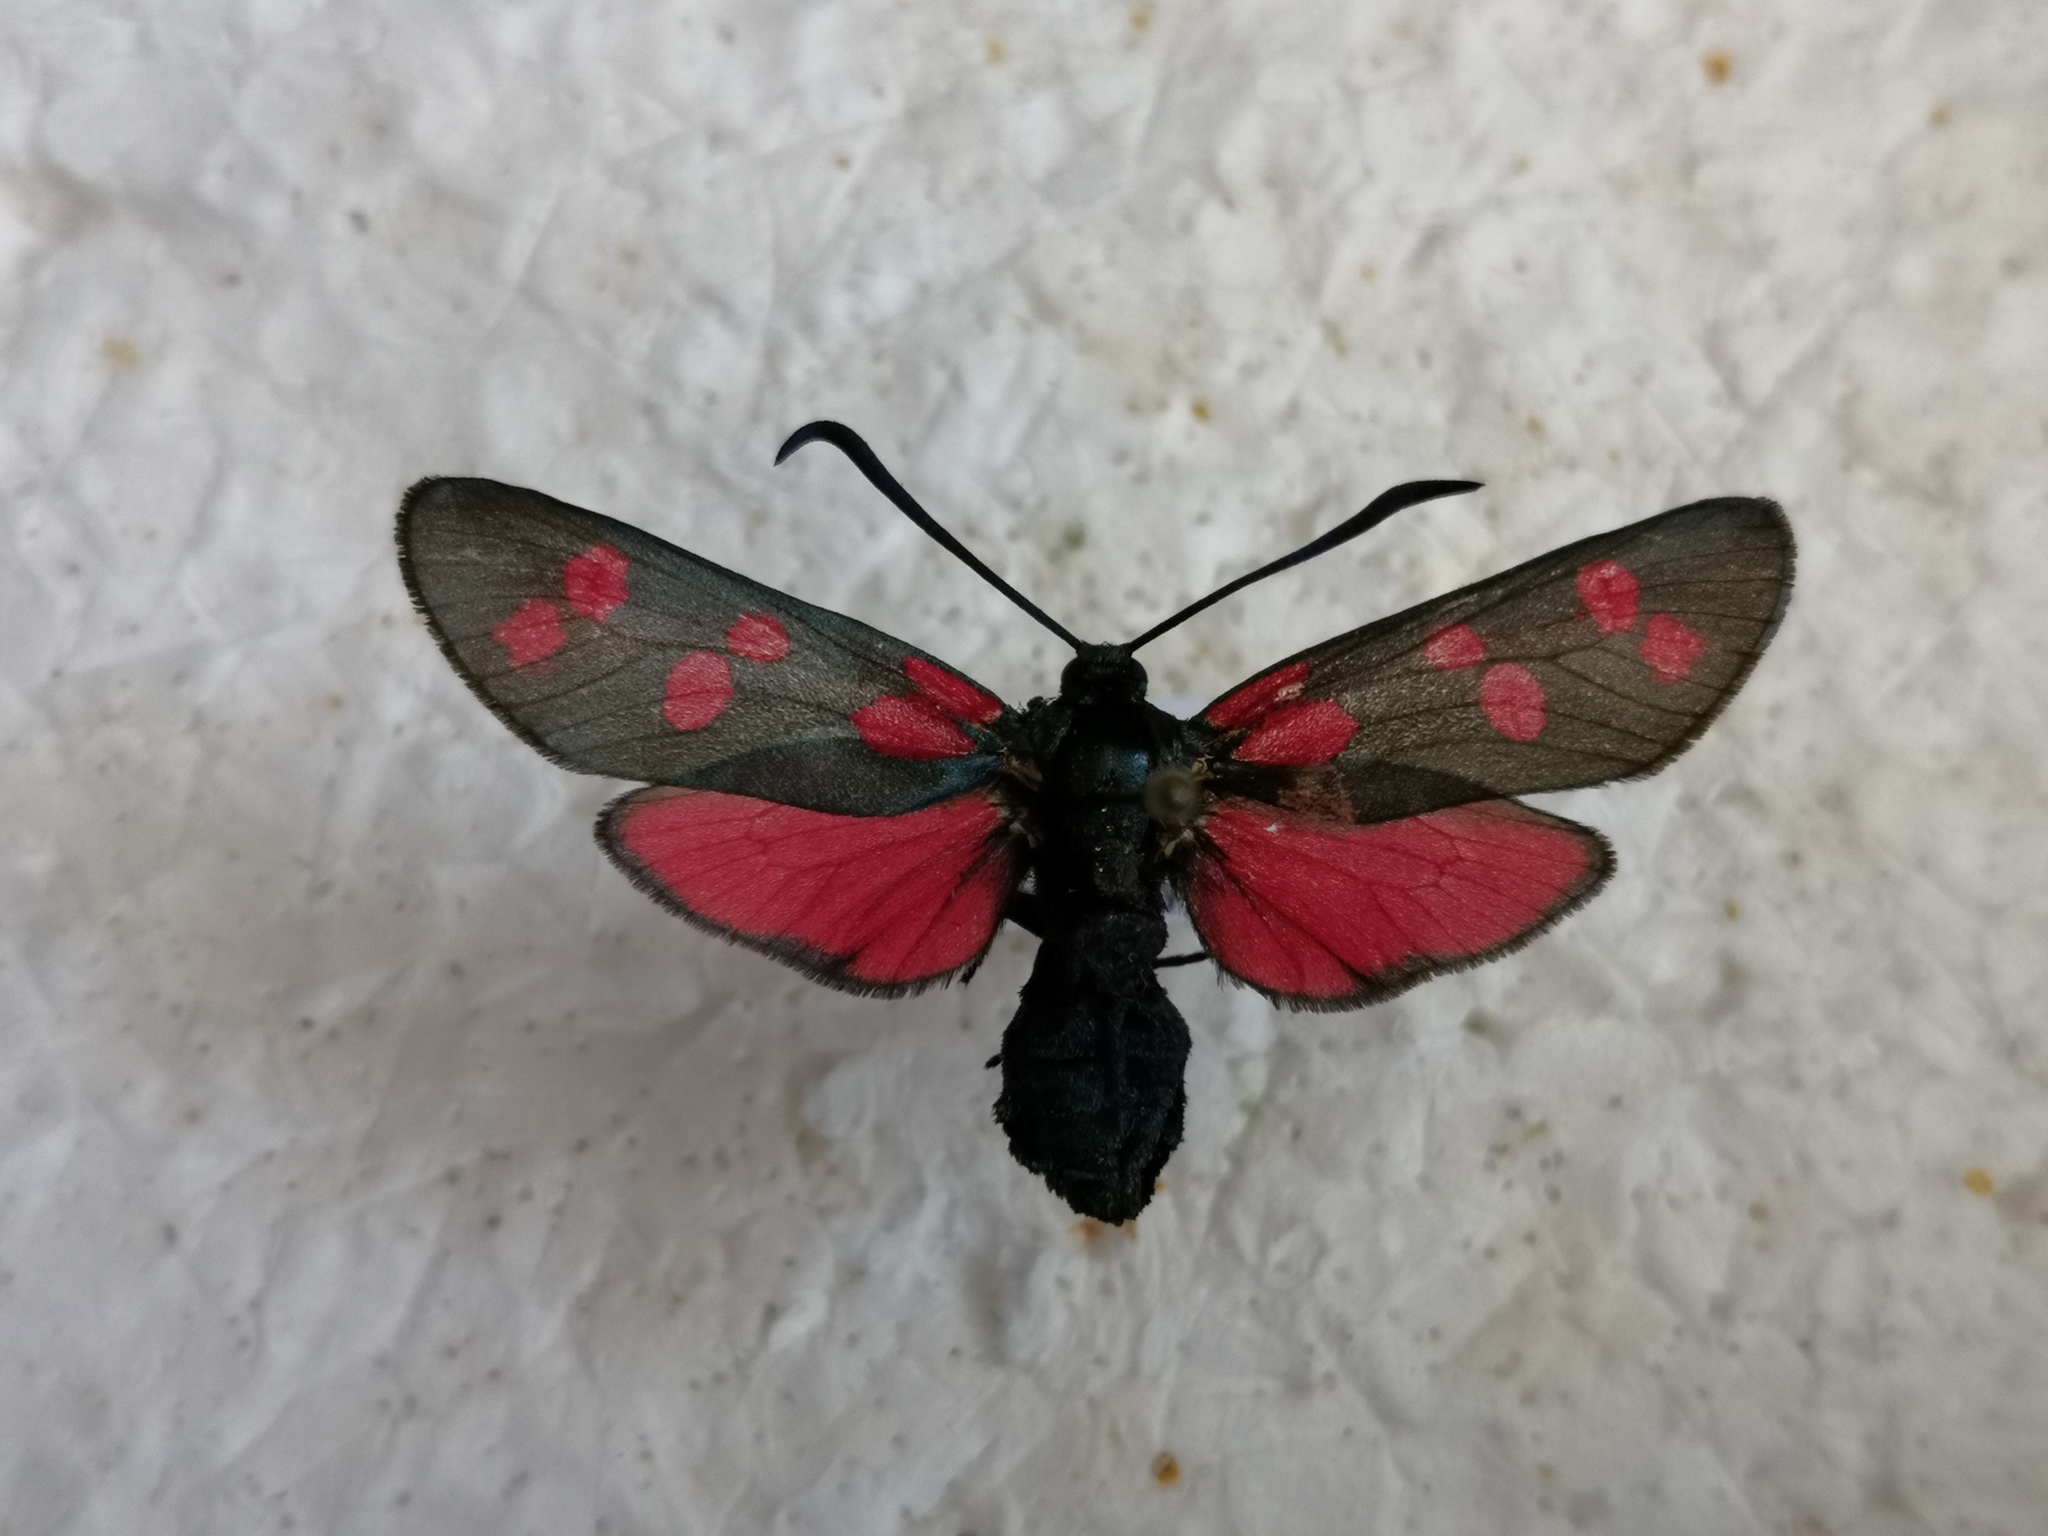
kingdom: Animalia
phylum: Arthropoda
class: Insecta
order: Lepidoptera
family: Zygaenidae
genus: Zygaena
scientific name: Zygaena filipendulae
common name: Six-spot burnet
